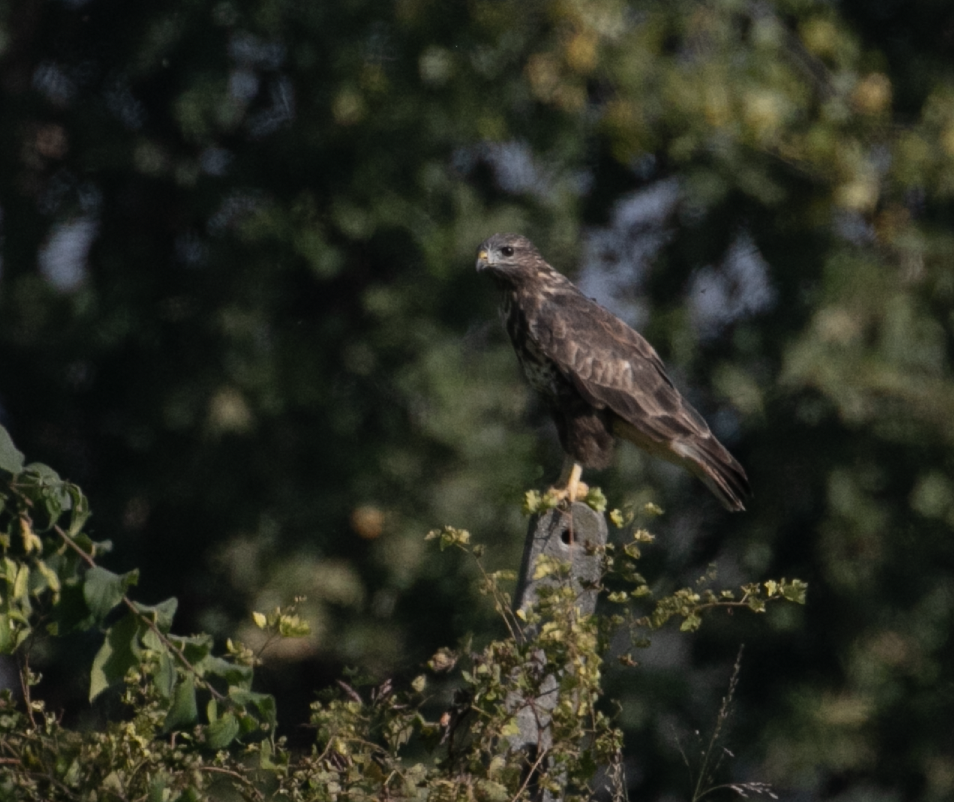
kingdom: Animalia
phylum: Chordata
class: Aves
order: Accipitriformes
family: Accipitridae
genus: Buteo
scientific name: Buteo buteo
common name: Common buzzard
